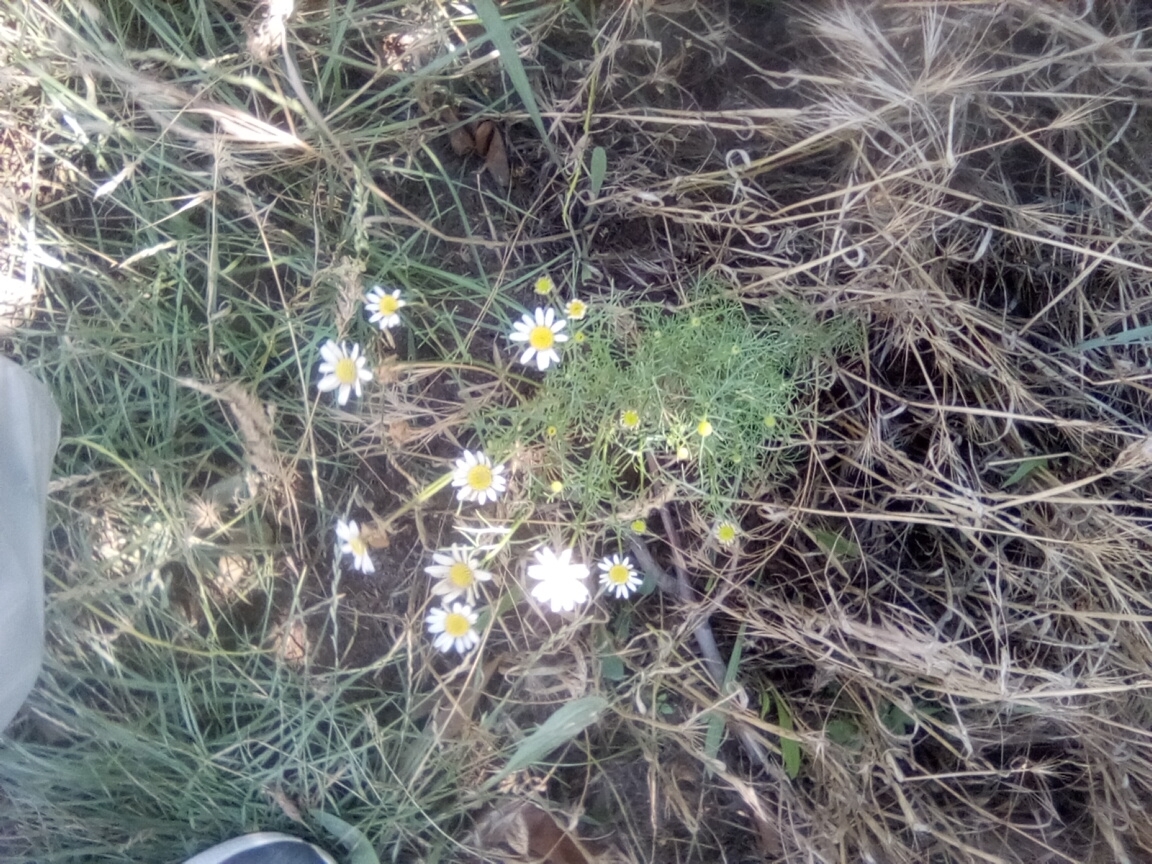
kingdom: Plantae
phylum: Tracheophyta
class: Magnoliopsida
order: Asterales
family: Asteraceae
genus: Tripleurospermum
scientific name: Tripleurospermum inodorum
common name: Scentless mayweed
